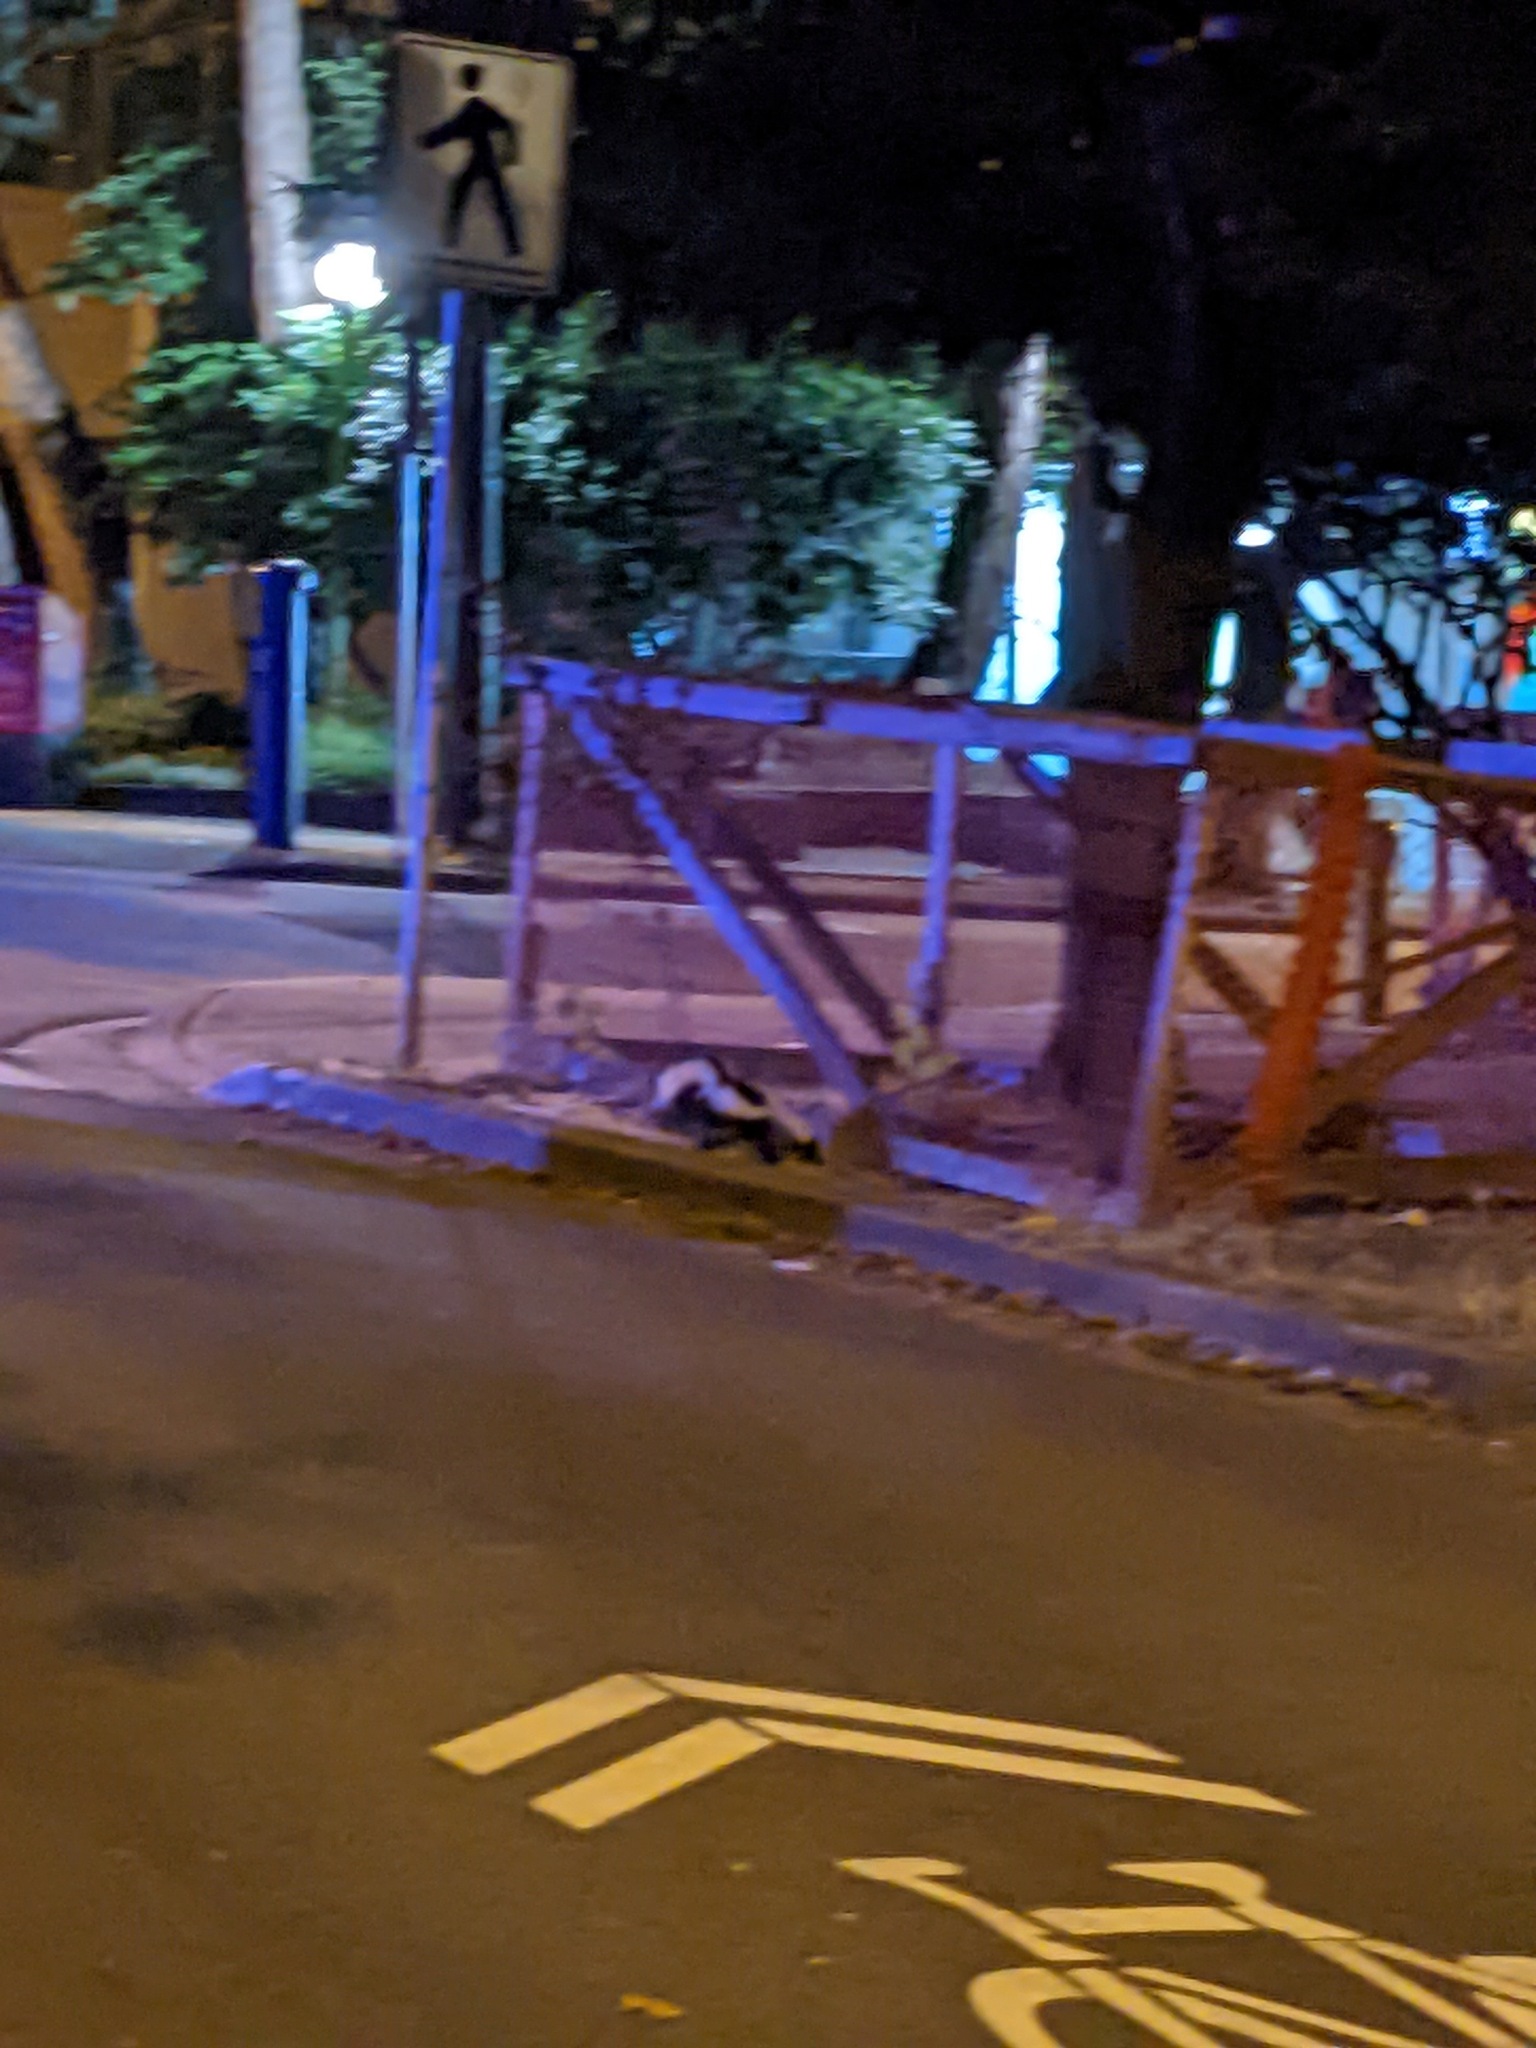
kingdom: Animalia
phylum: Chordata
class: Mammalia
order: Carnivora
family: Mephitidae
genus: Mephitis
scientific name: Mephitis mephitis
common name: Striped skunk
